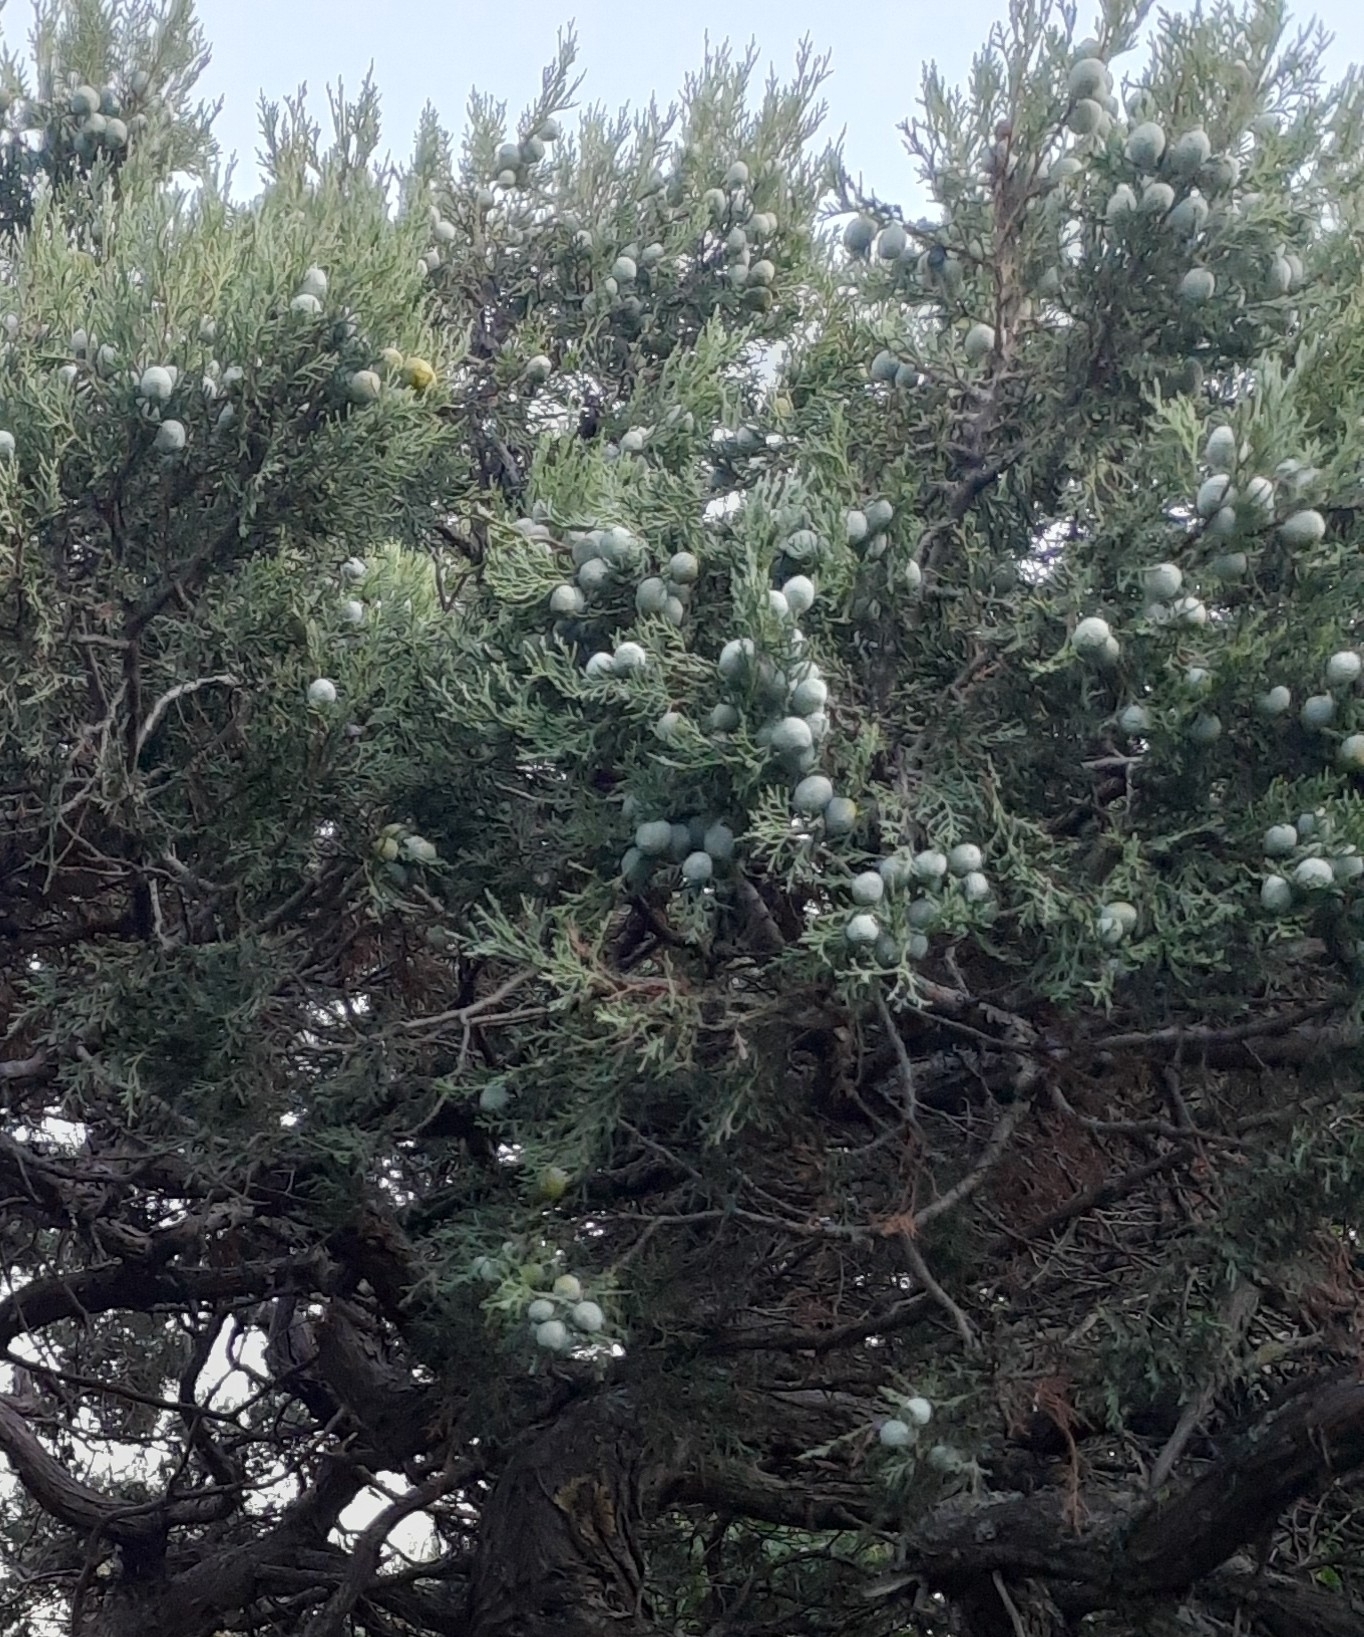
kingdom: Plantae
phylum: Tracheophyta
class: Pinopsida
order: Pinales
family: Cupressaceae
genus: Juniperus
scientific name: Juniperus excelsa
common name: Crimean juniper
